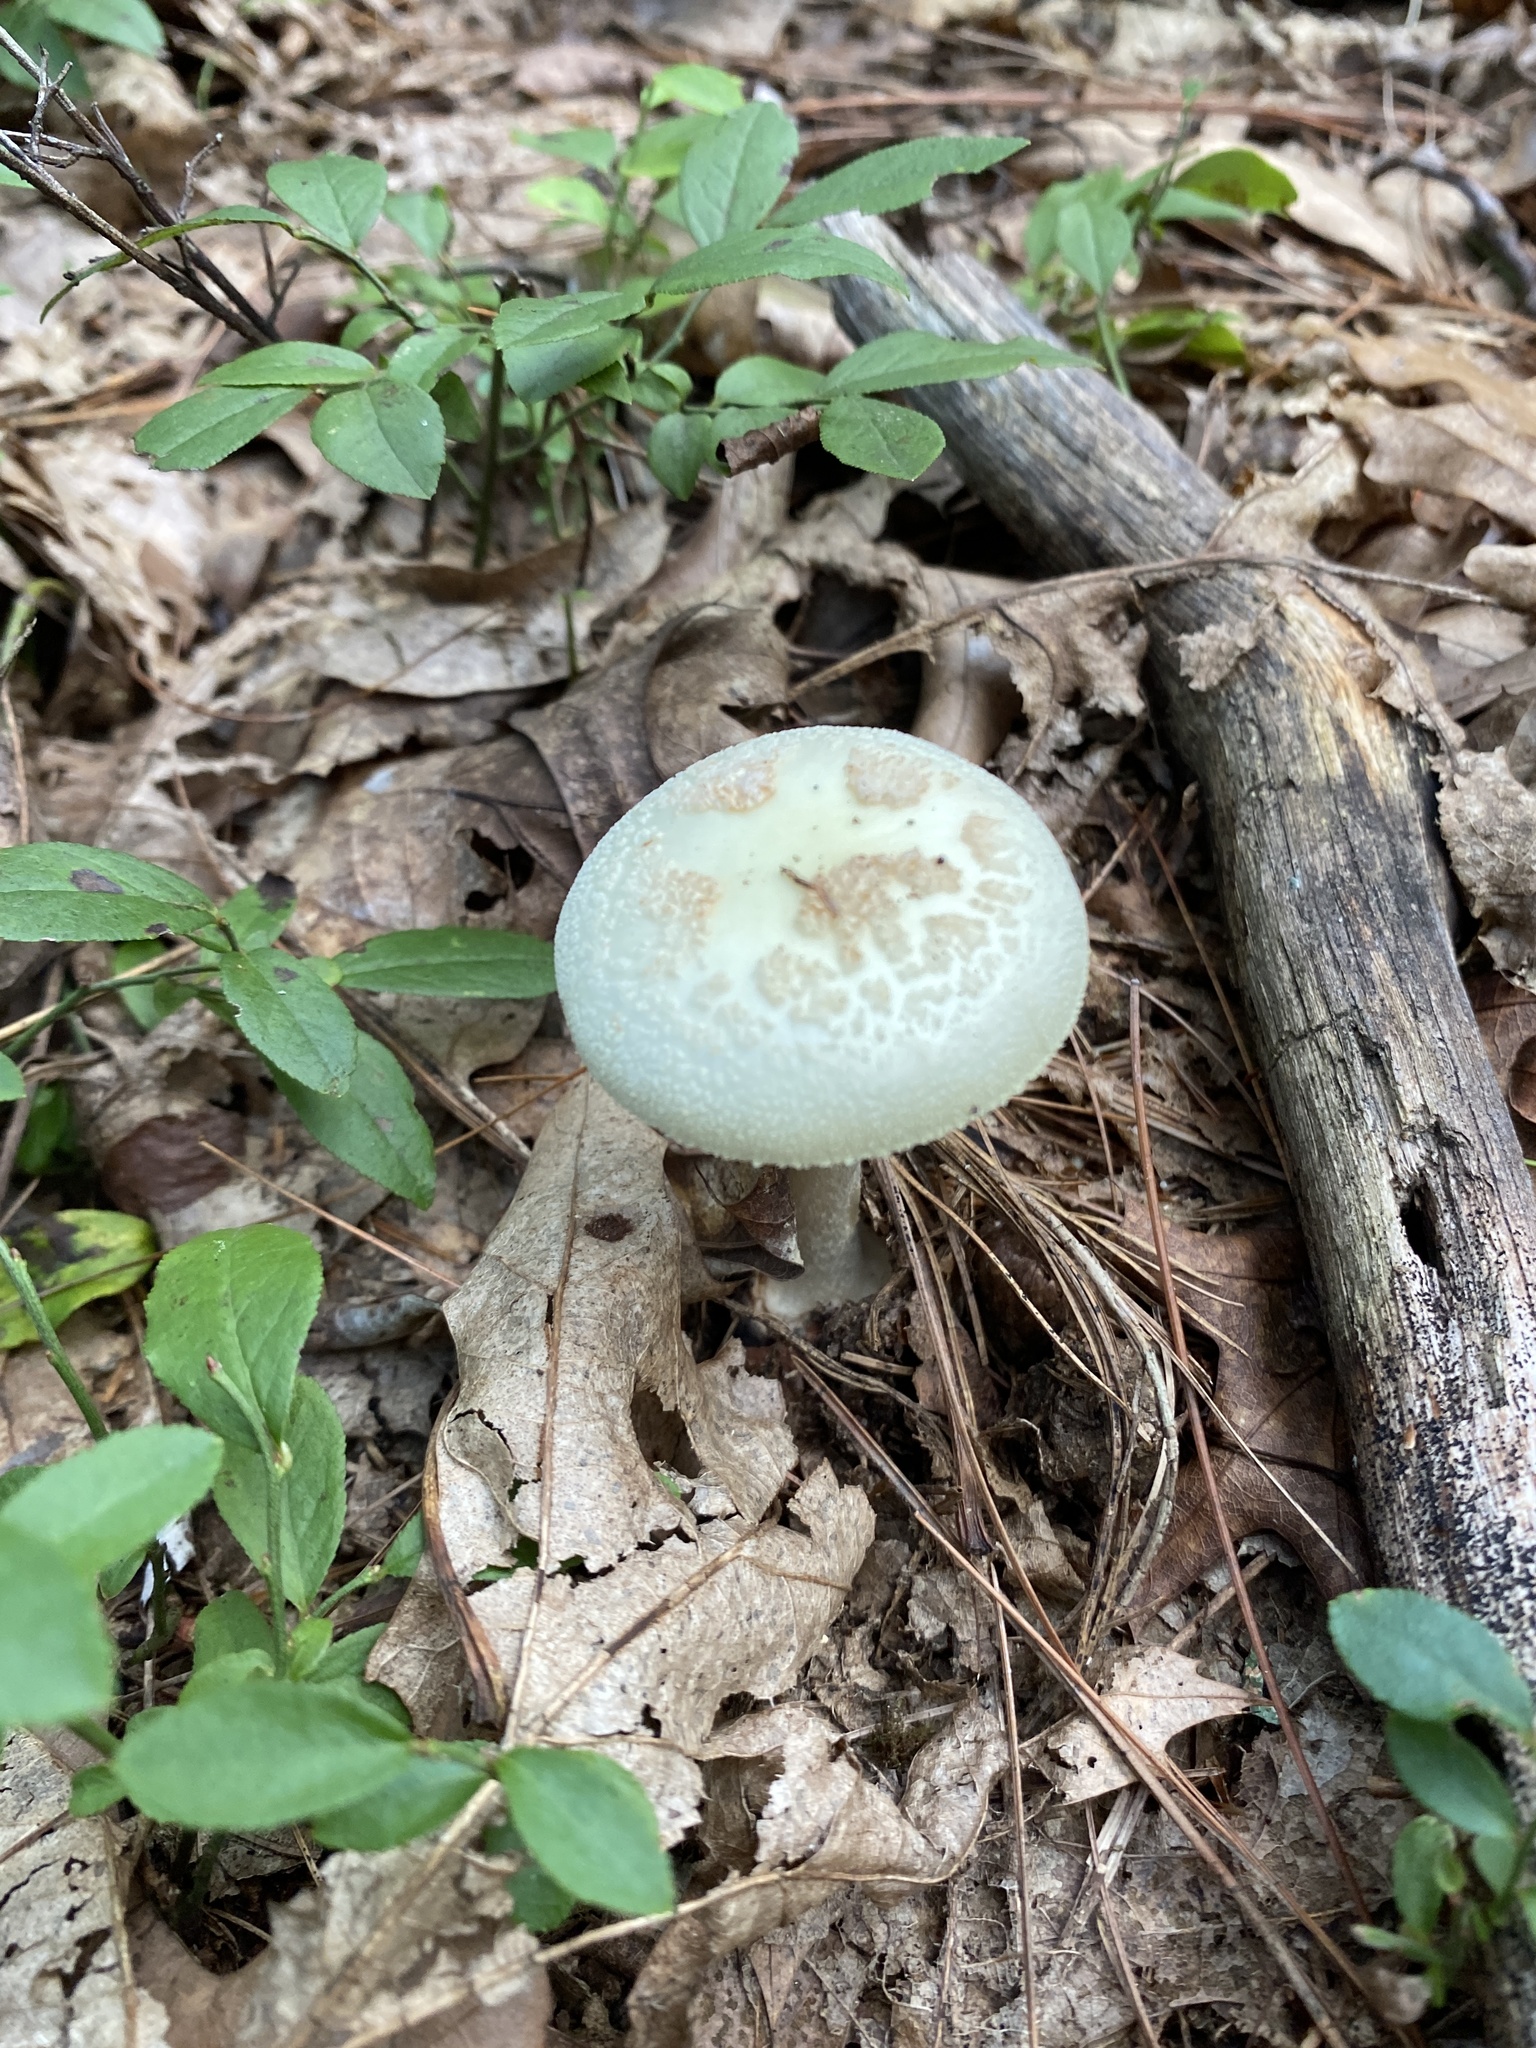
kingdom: Fungi
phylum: Basidiomycota
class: Agaricomycetes
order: Agaricales
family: Amanitaceae
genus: Amanita
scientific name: Amanita lavendula
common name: Coker's lavender staining amanita
